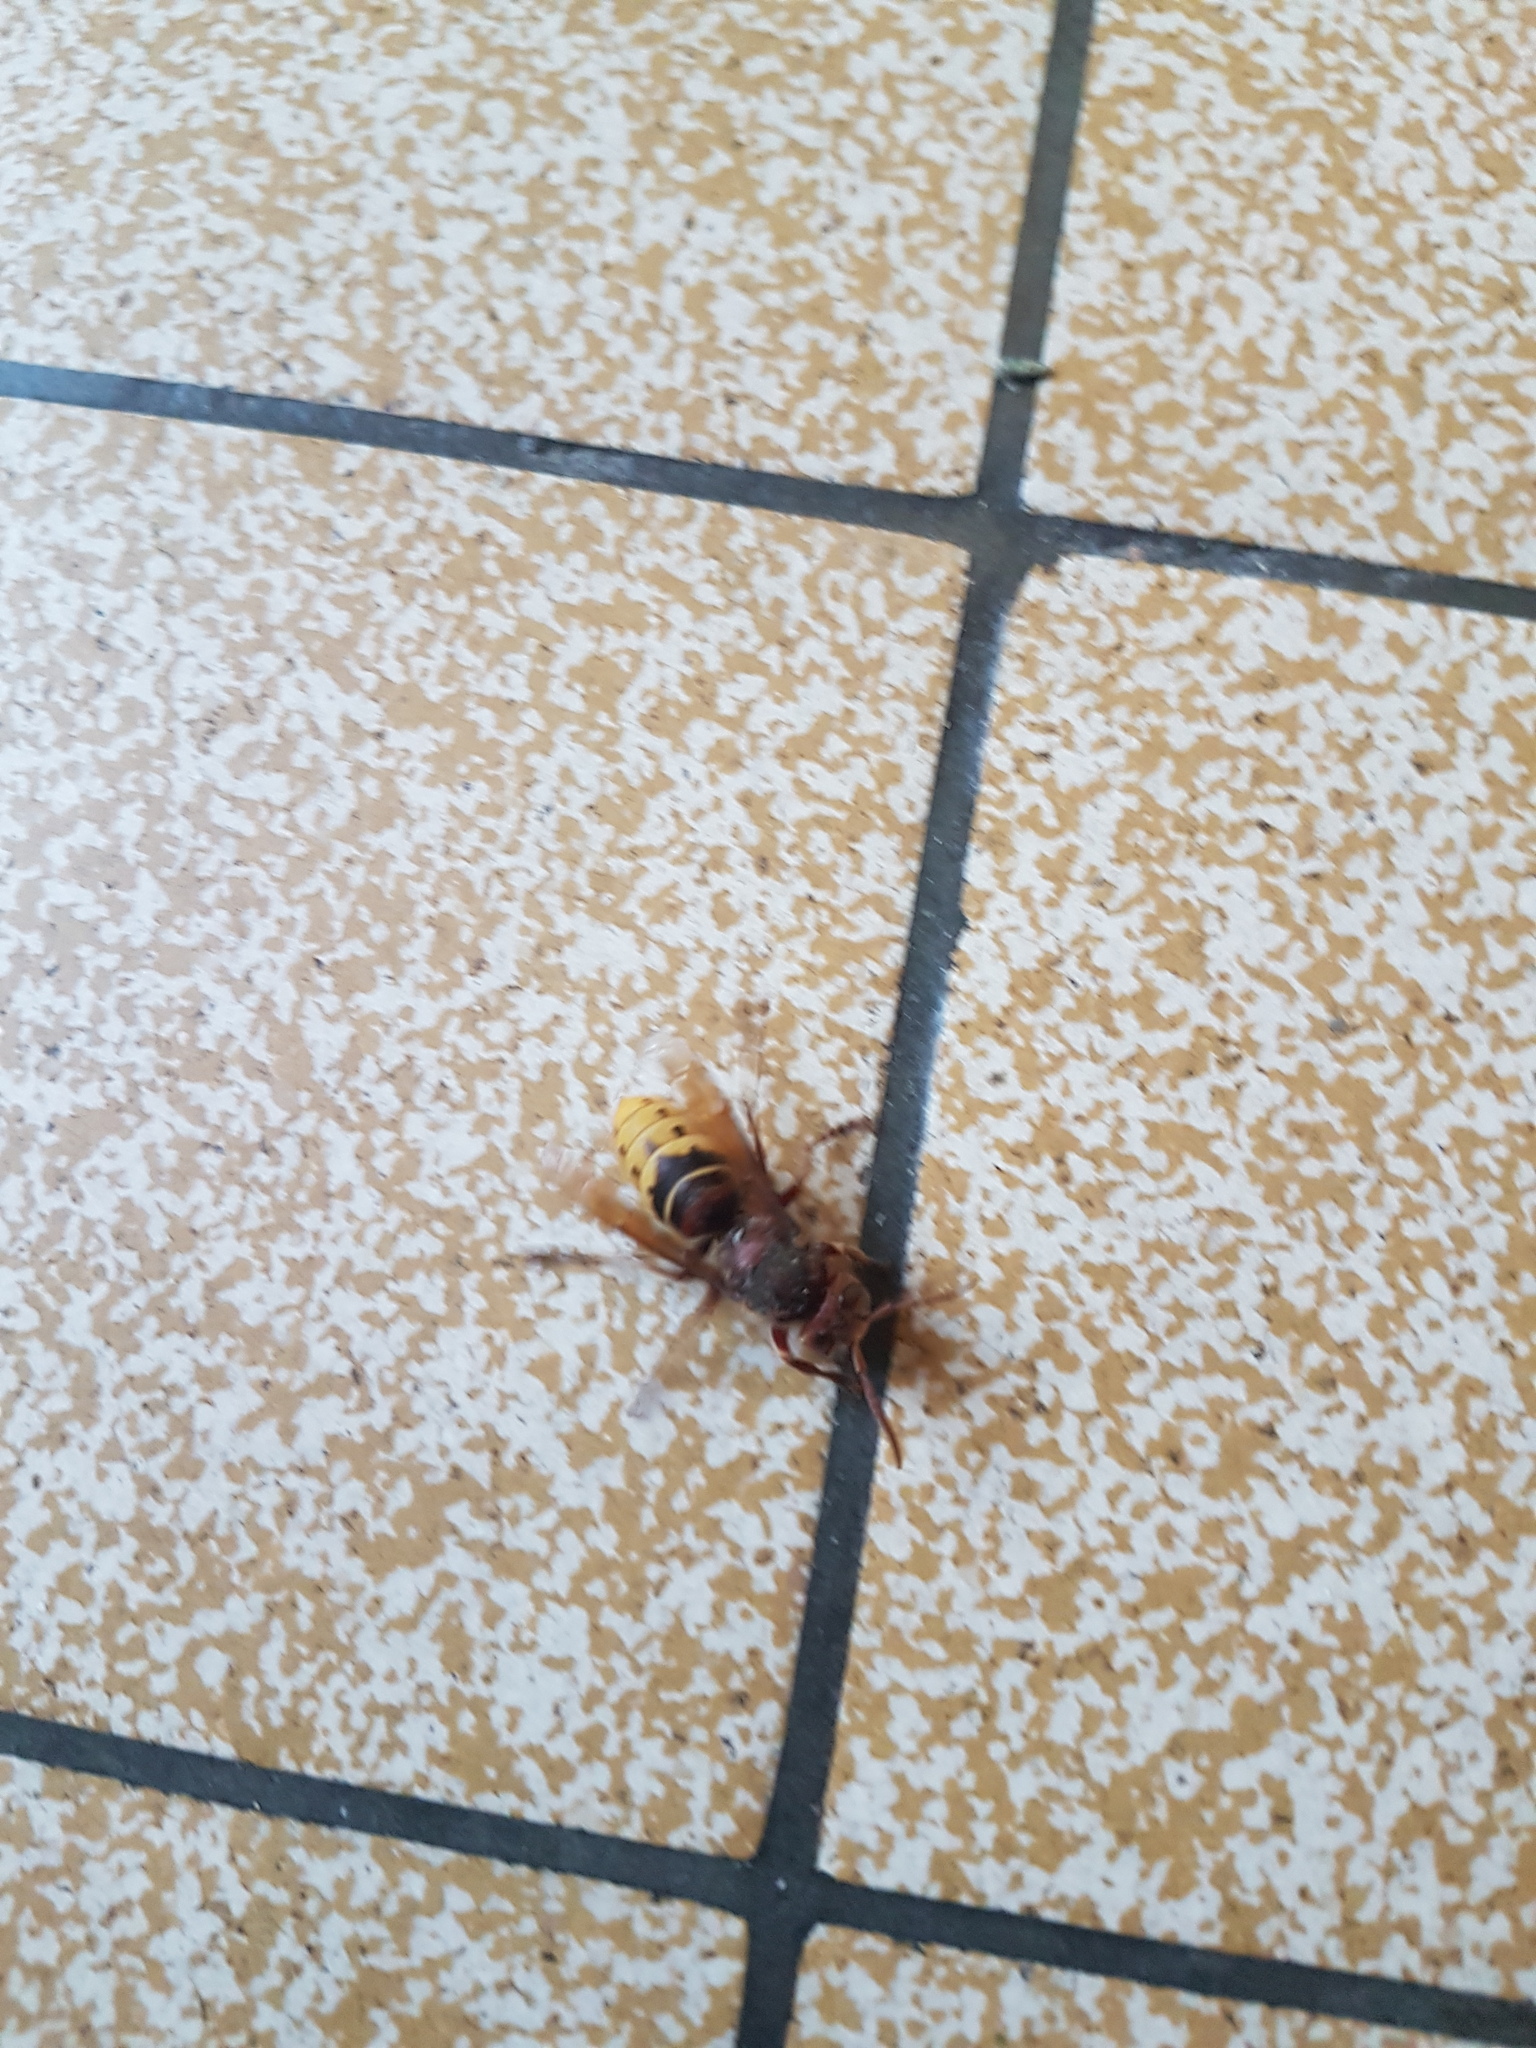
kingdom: Animalia
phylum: Arthropoda
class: Insecta
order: Hymenoptera
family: Vespidae
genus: Vespa
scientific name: Vespa crabro
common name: Hornet
